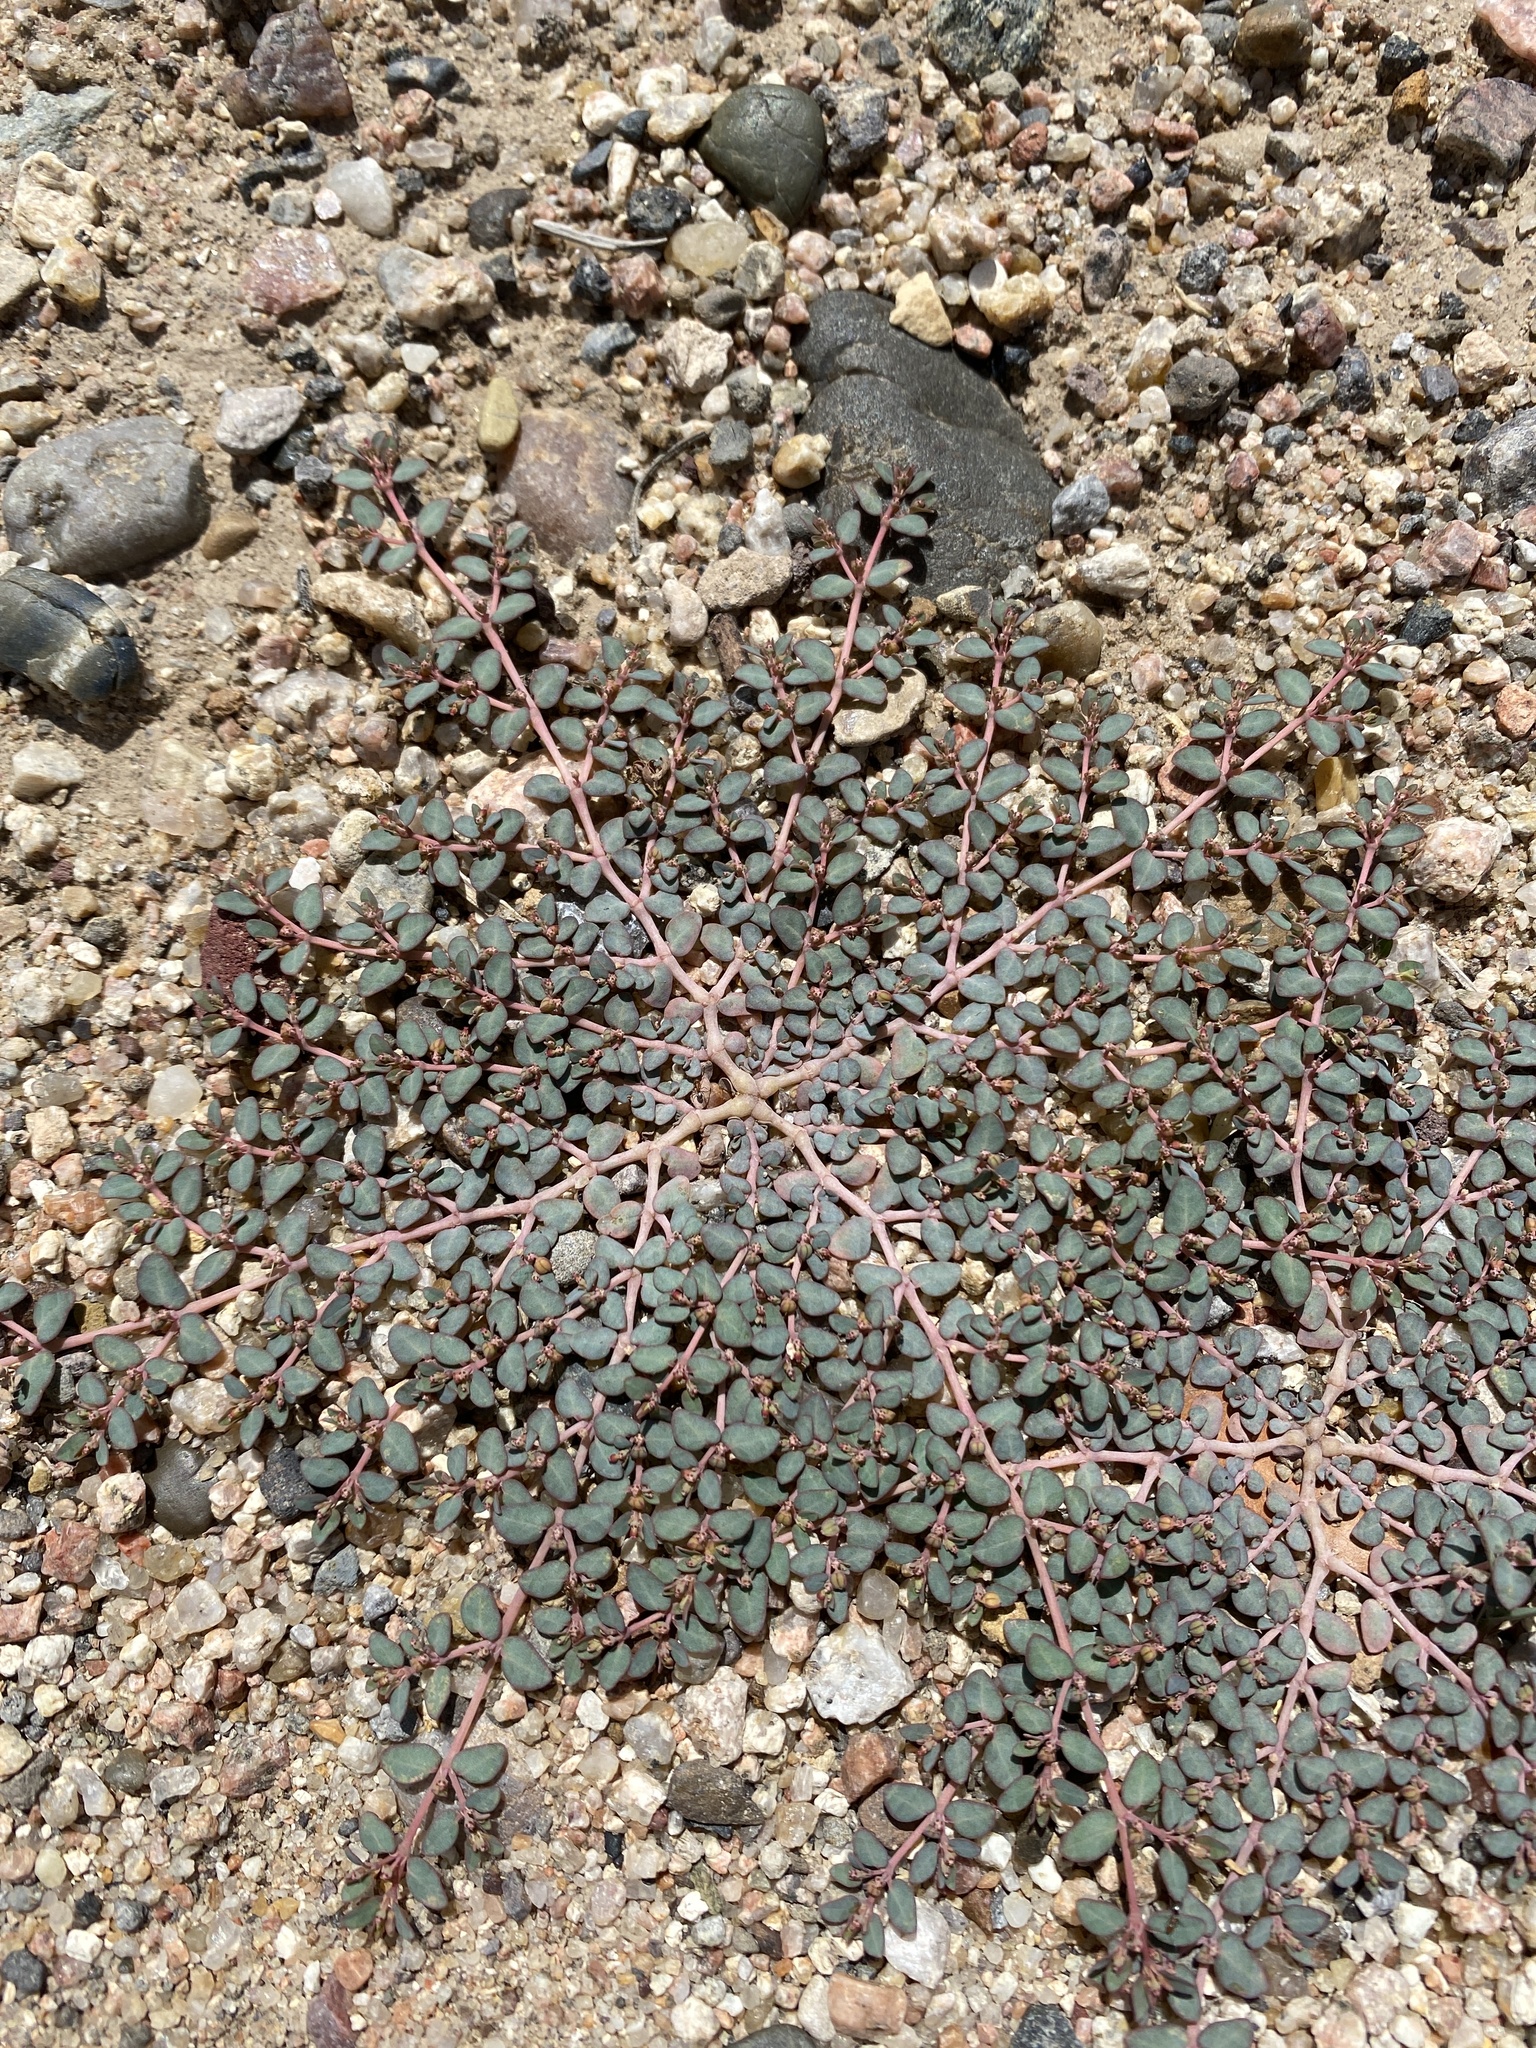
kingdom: Plantae
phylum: Tracheophyta
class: Magnoliopsida
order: Malpighiales
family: Euphorbiaceae
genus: Euphorbia
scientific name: Euphorbia micromera
